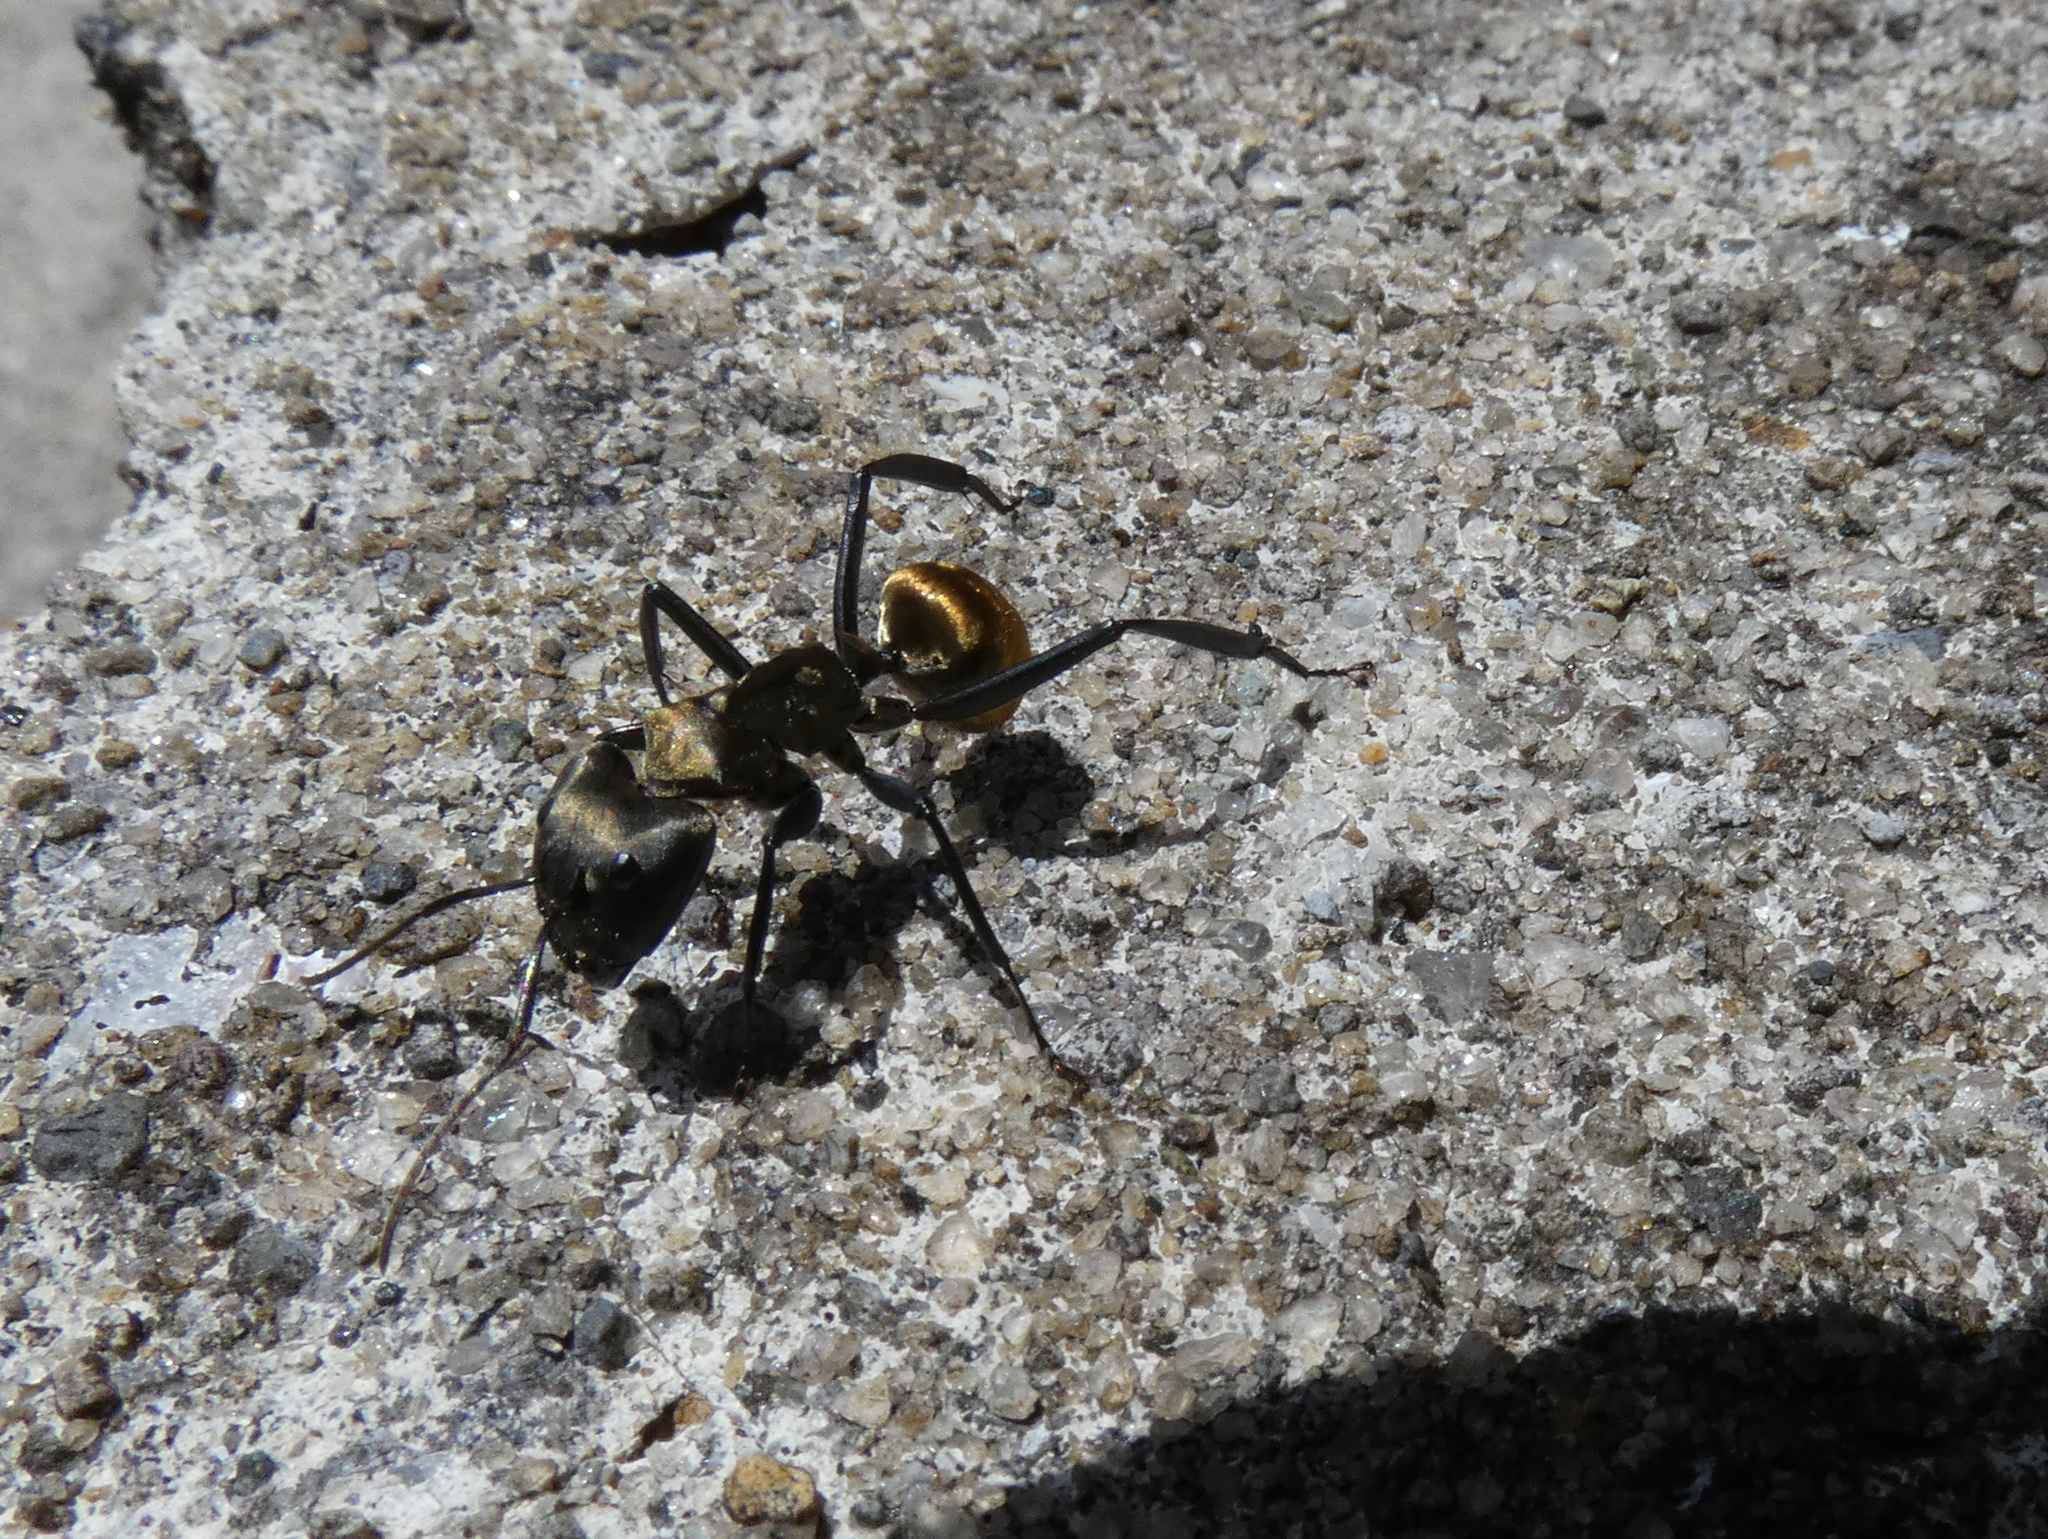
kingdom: Animalia
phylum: Arthropoda
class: Insecta
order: Hymenoptera
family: Formicidae
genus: Camponotus
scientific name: Camponotus sericeiventris
